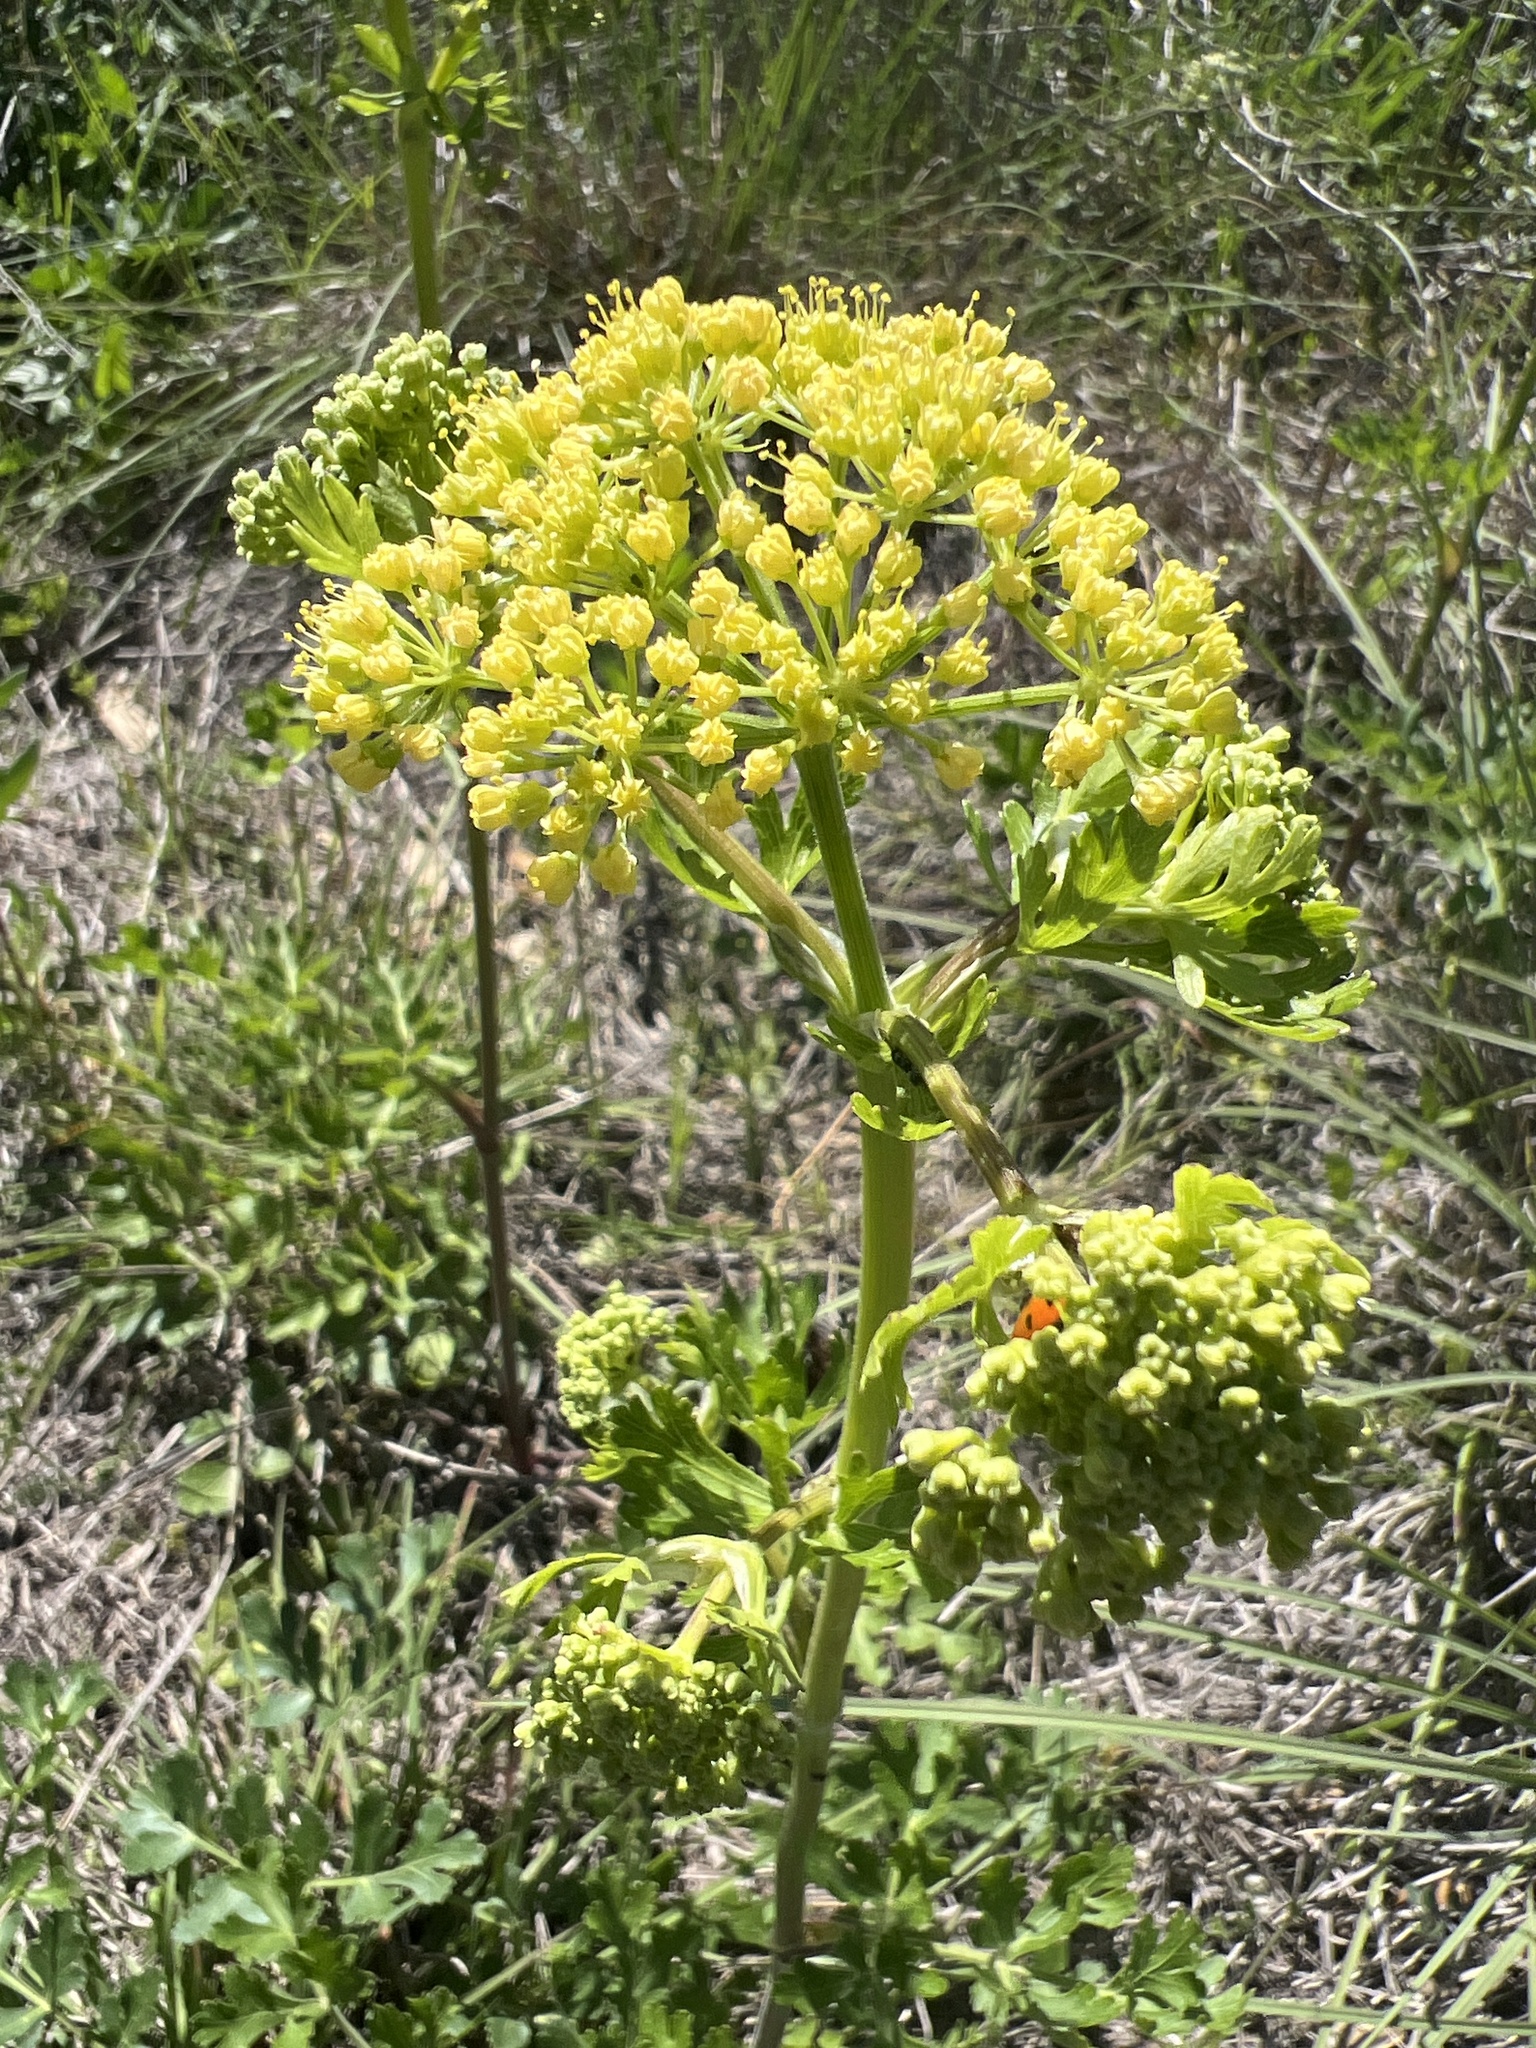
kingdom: Plantae
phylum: Tracheophyta
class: Magnoliopsida
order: Apiales
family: Apiaceae
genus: Polytaenia
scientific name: Polytaenia texana
